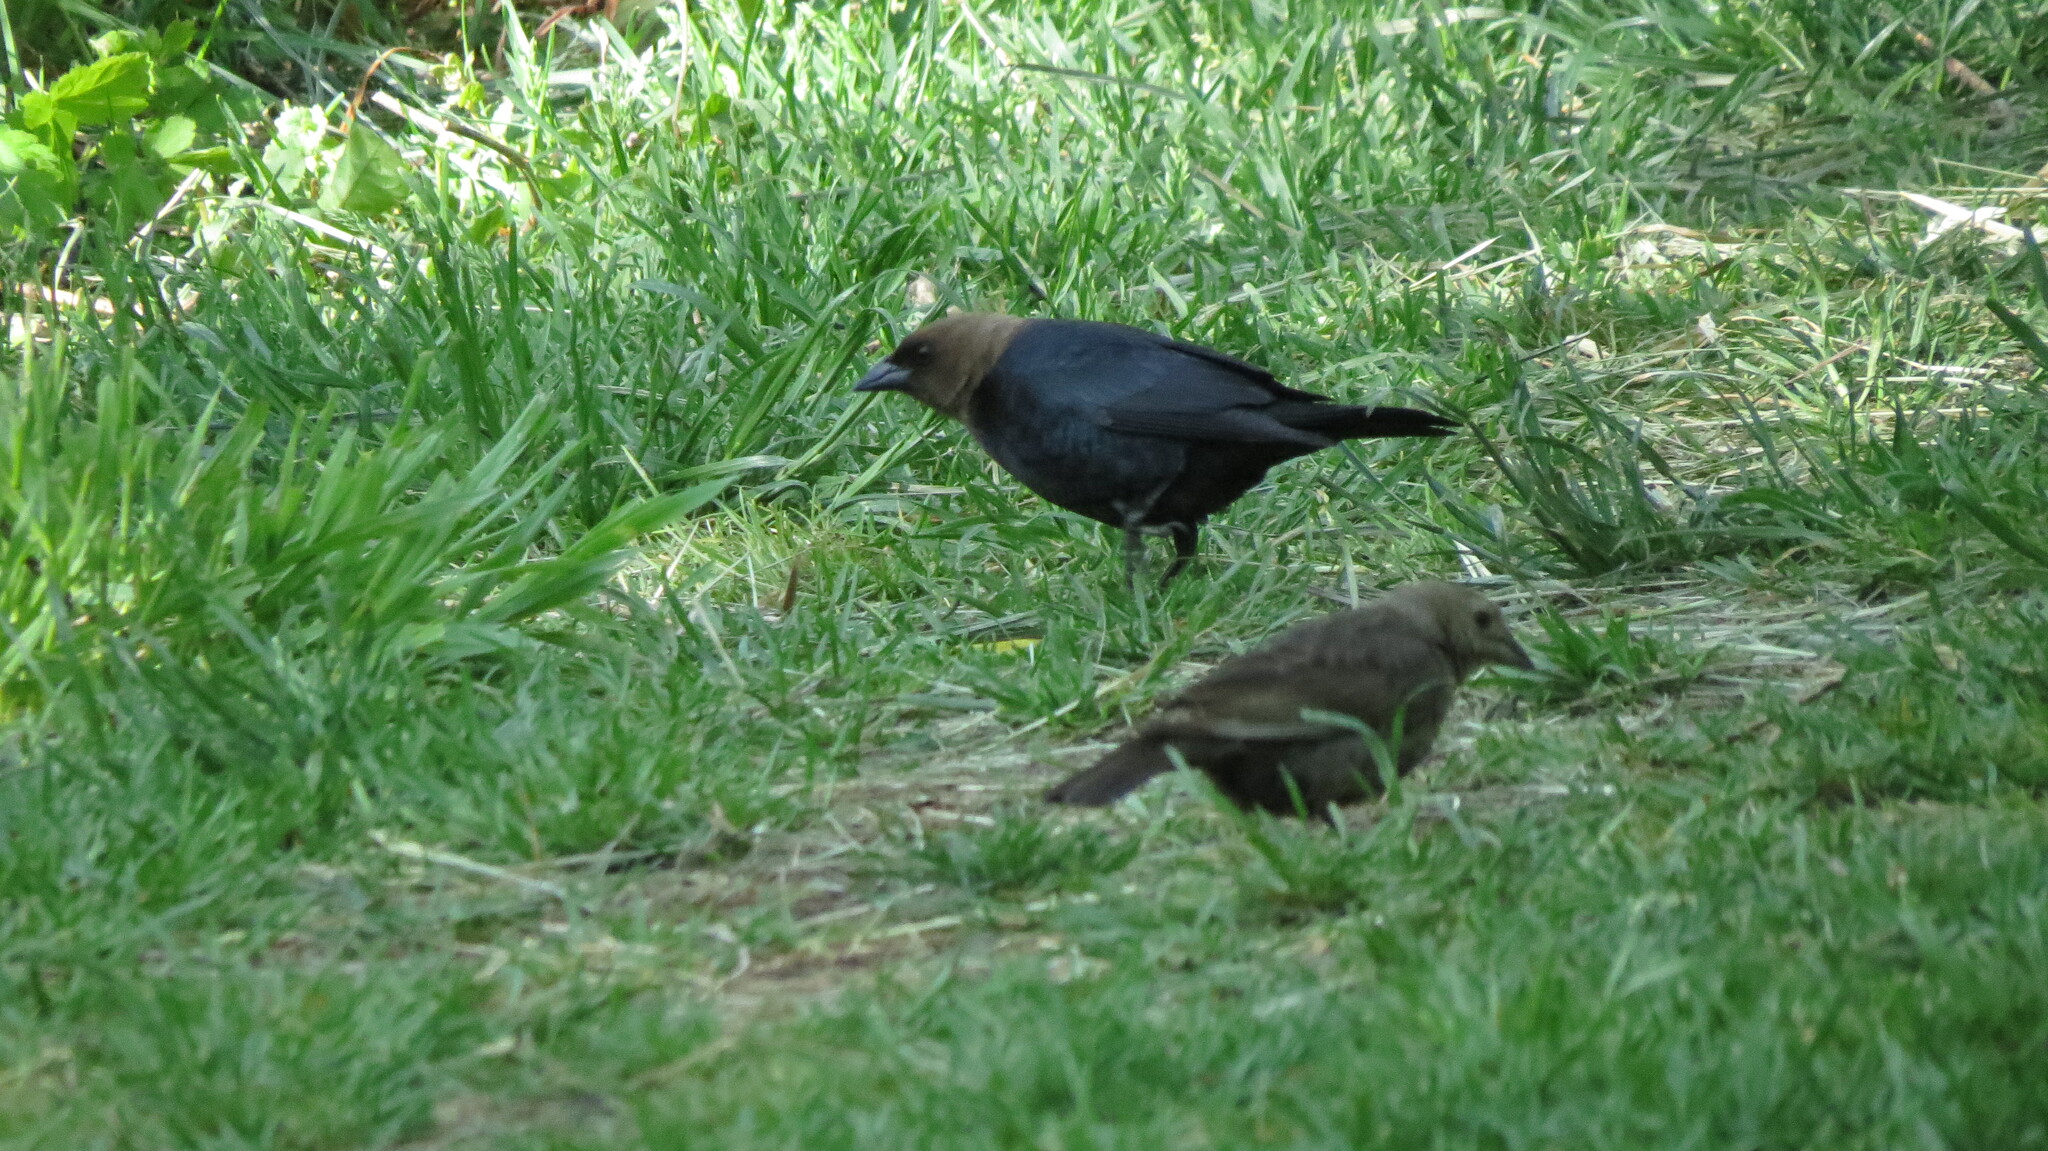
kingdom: Animalia
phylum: Chordata
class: Aves
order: Passeriformes
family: Icteridae
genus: Molothrus
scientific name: Molothrus ater
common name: Brown-headed cowbird
